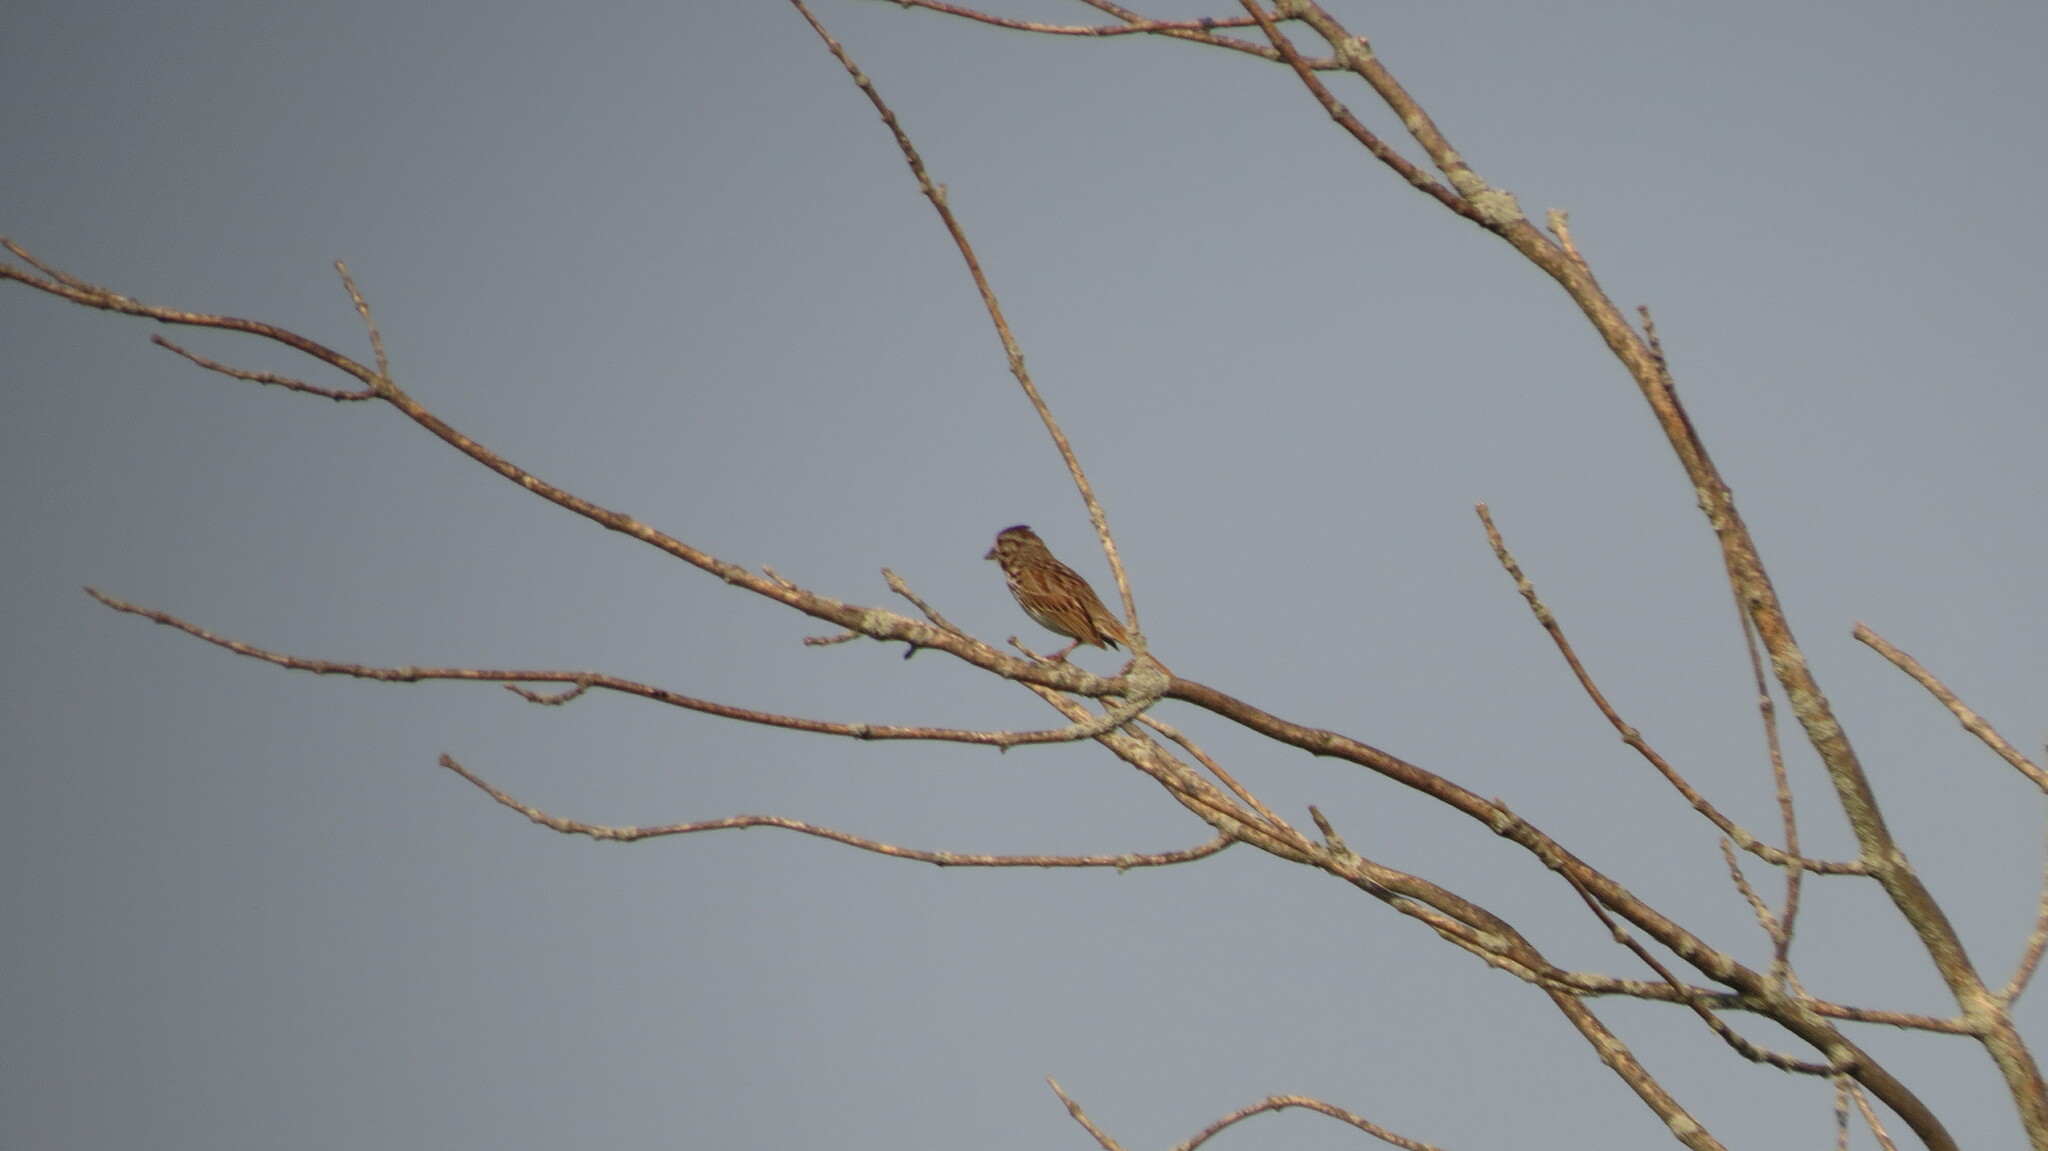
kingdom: Animalia
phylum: Chordata
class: Aves
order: Passeriformes
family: Passerellidae
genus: Melospiza
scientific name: Melospiza melodia
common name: Song sparrow
